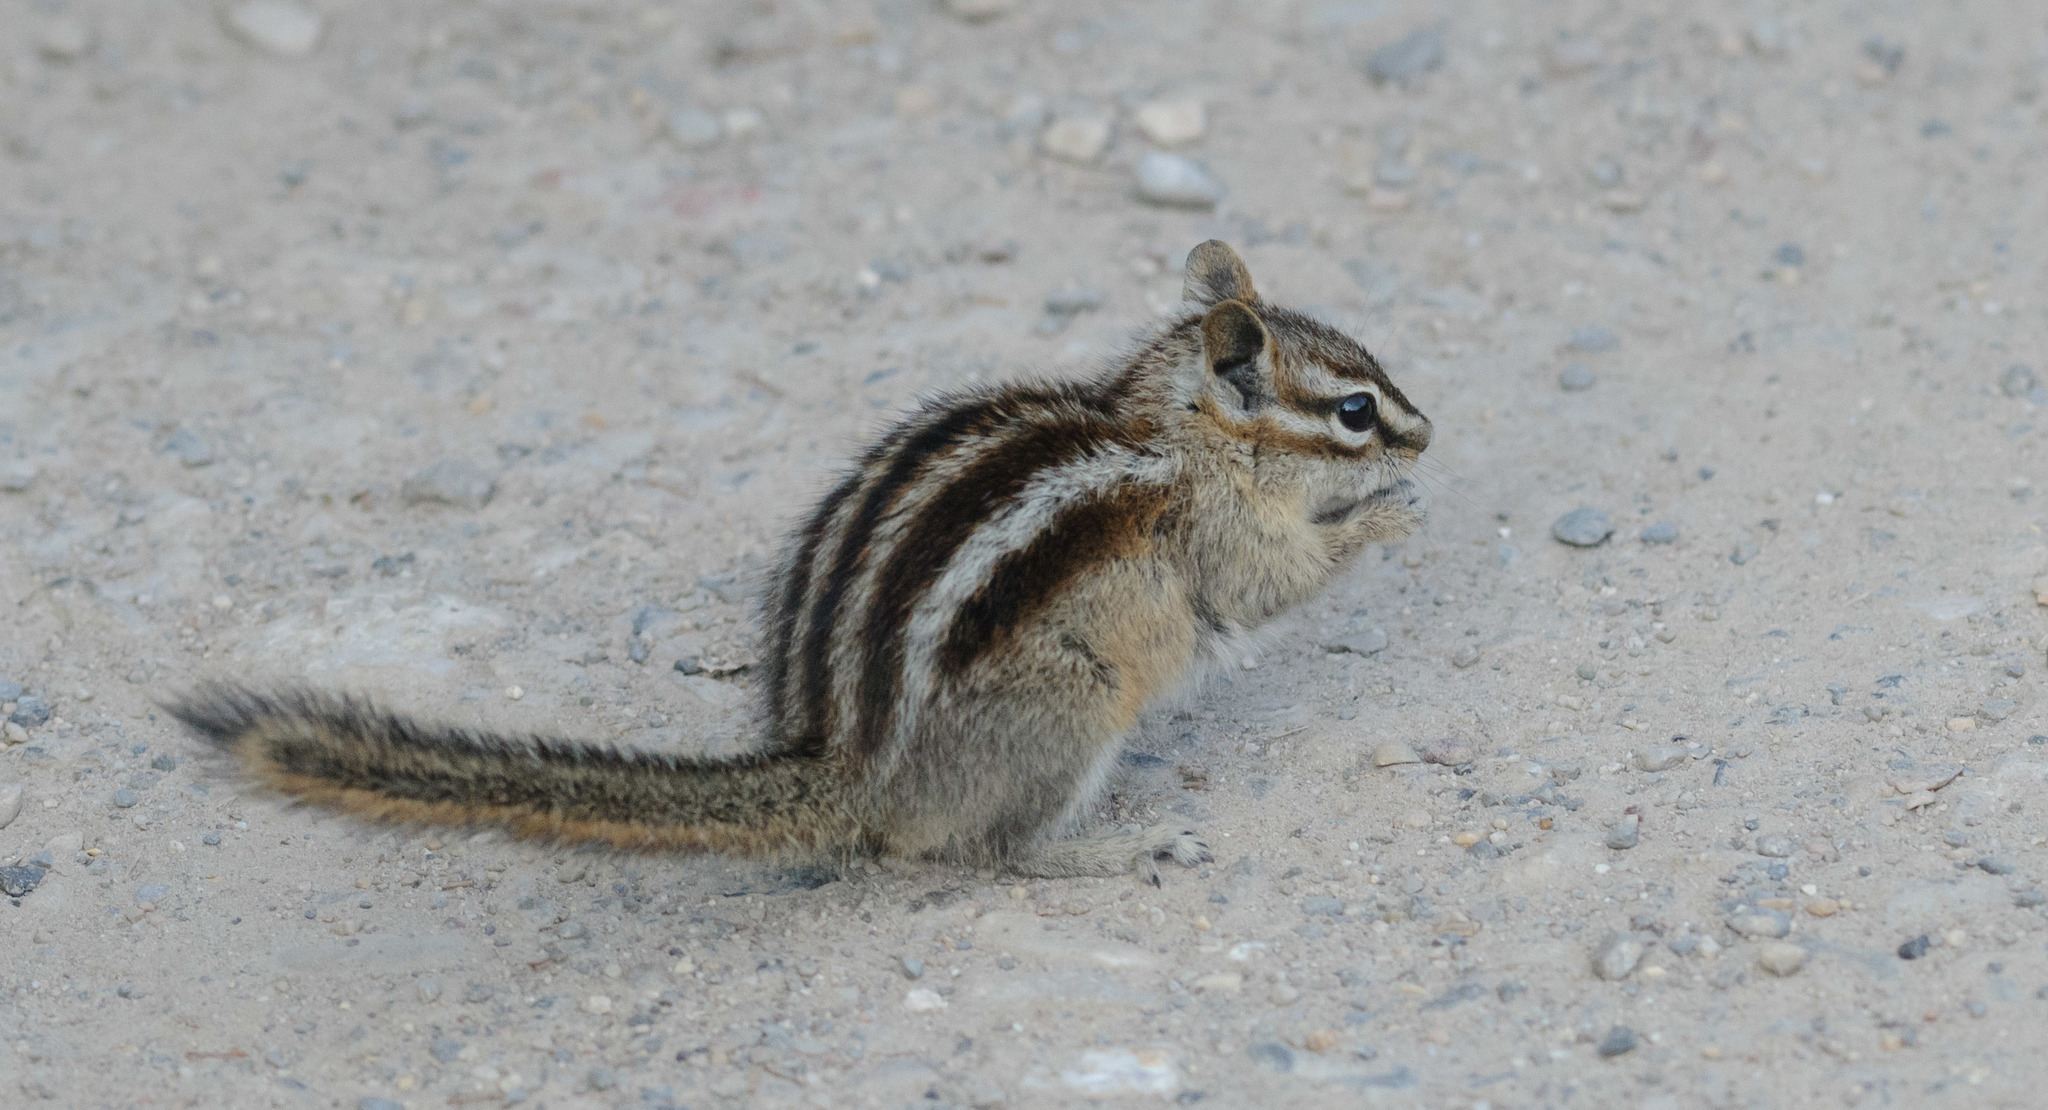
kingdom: Animalia
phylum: Chordata
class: Mammalia
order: Rodentia
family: Sciuridae
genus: Tamias
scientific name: Tamias minimus
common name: Least chipmunk
